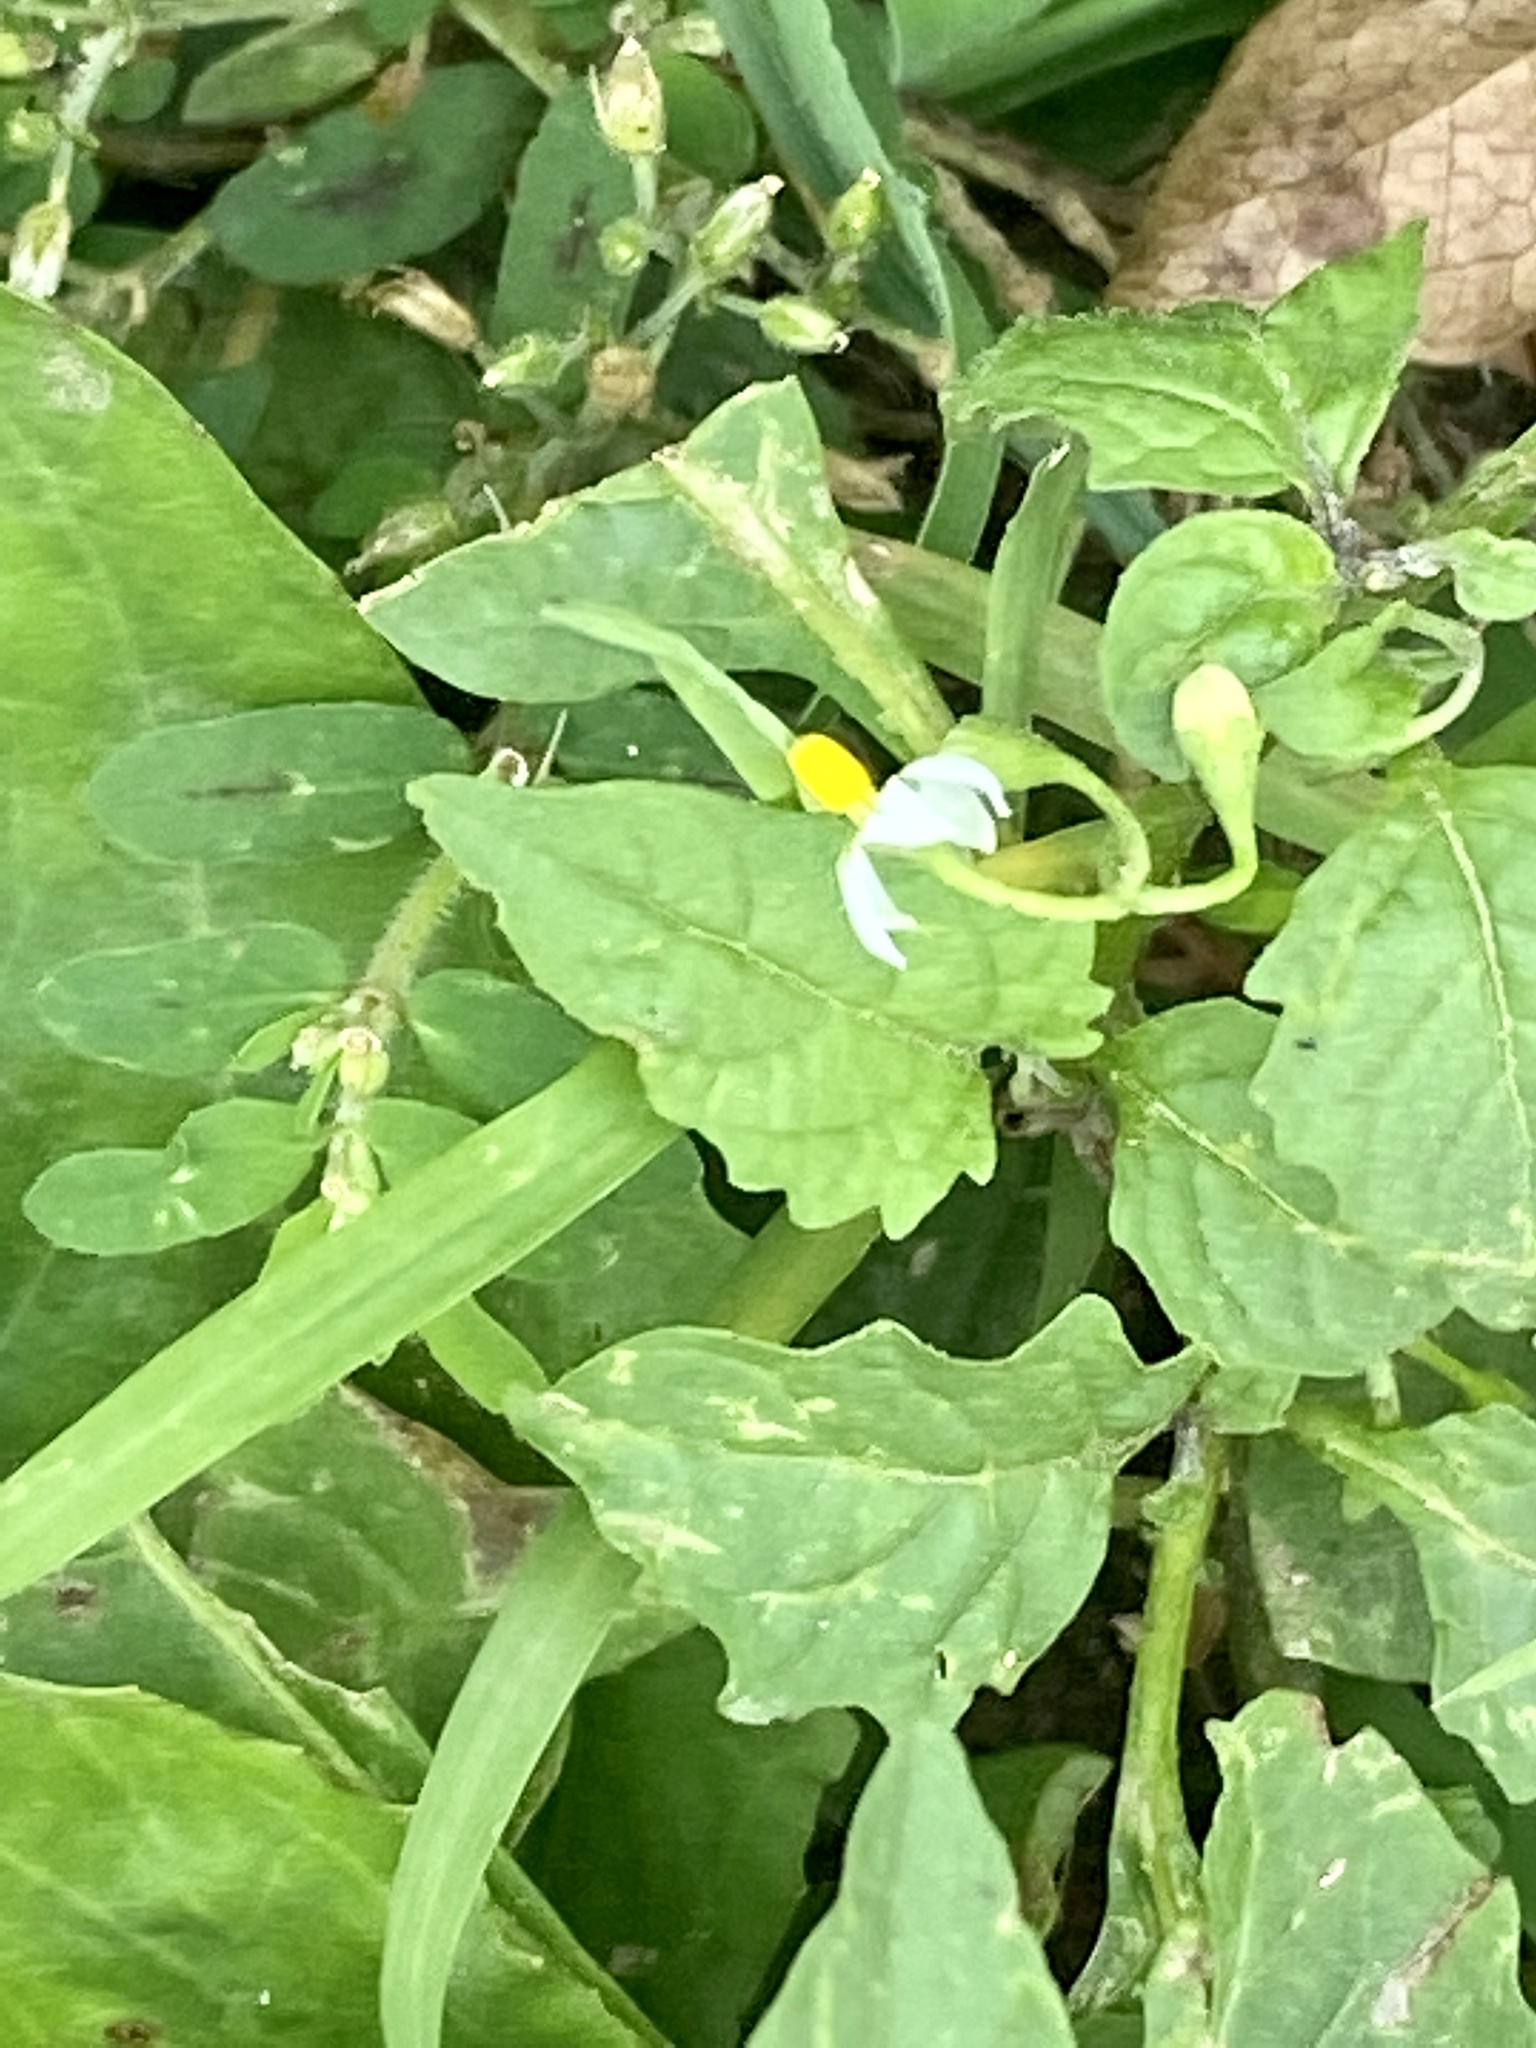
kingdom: Plantae
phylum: Tracheophyta
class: Magnoliopsida
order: Solanales
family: Solanaceae
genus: Solanum
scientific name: Solanum emulans
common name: Eastern black nightshade
